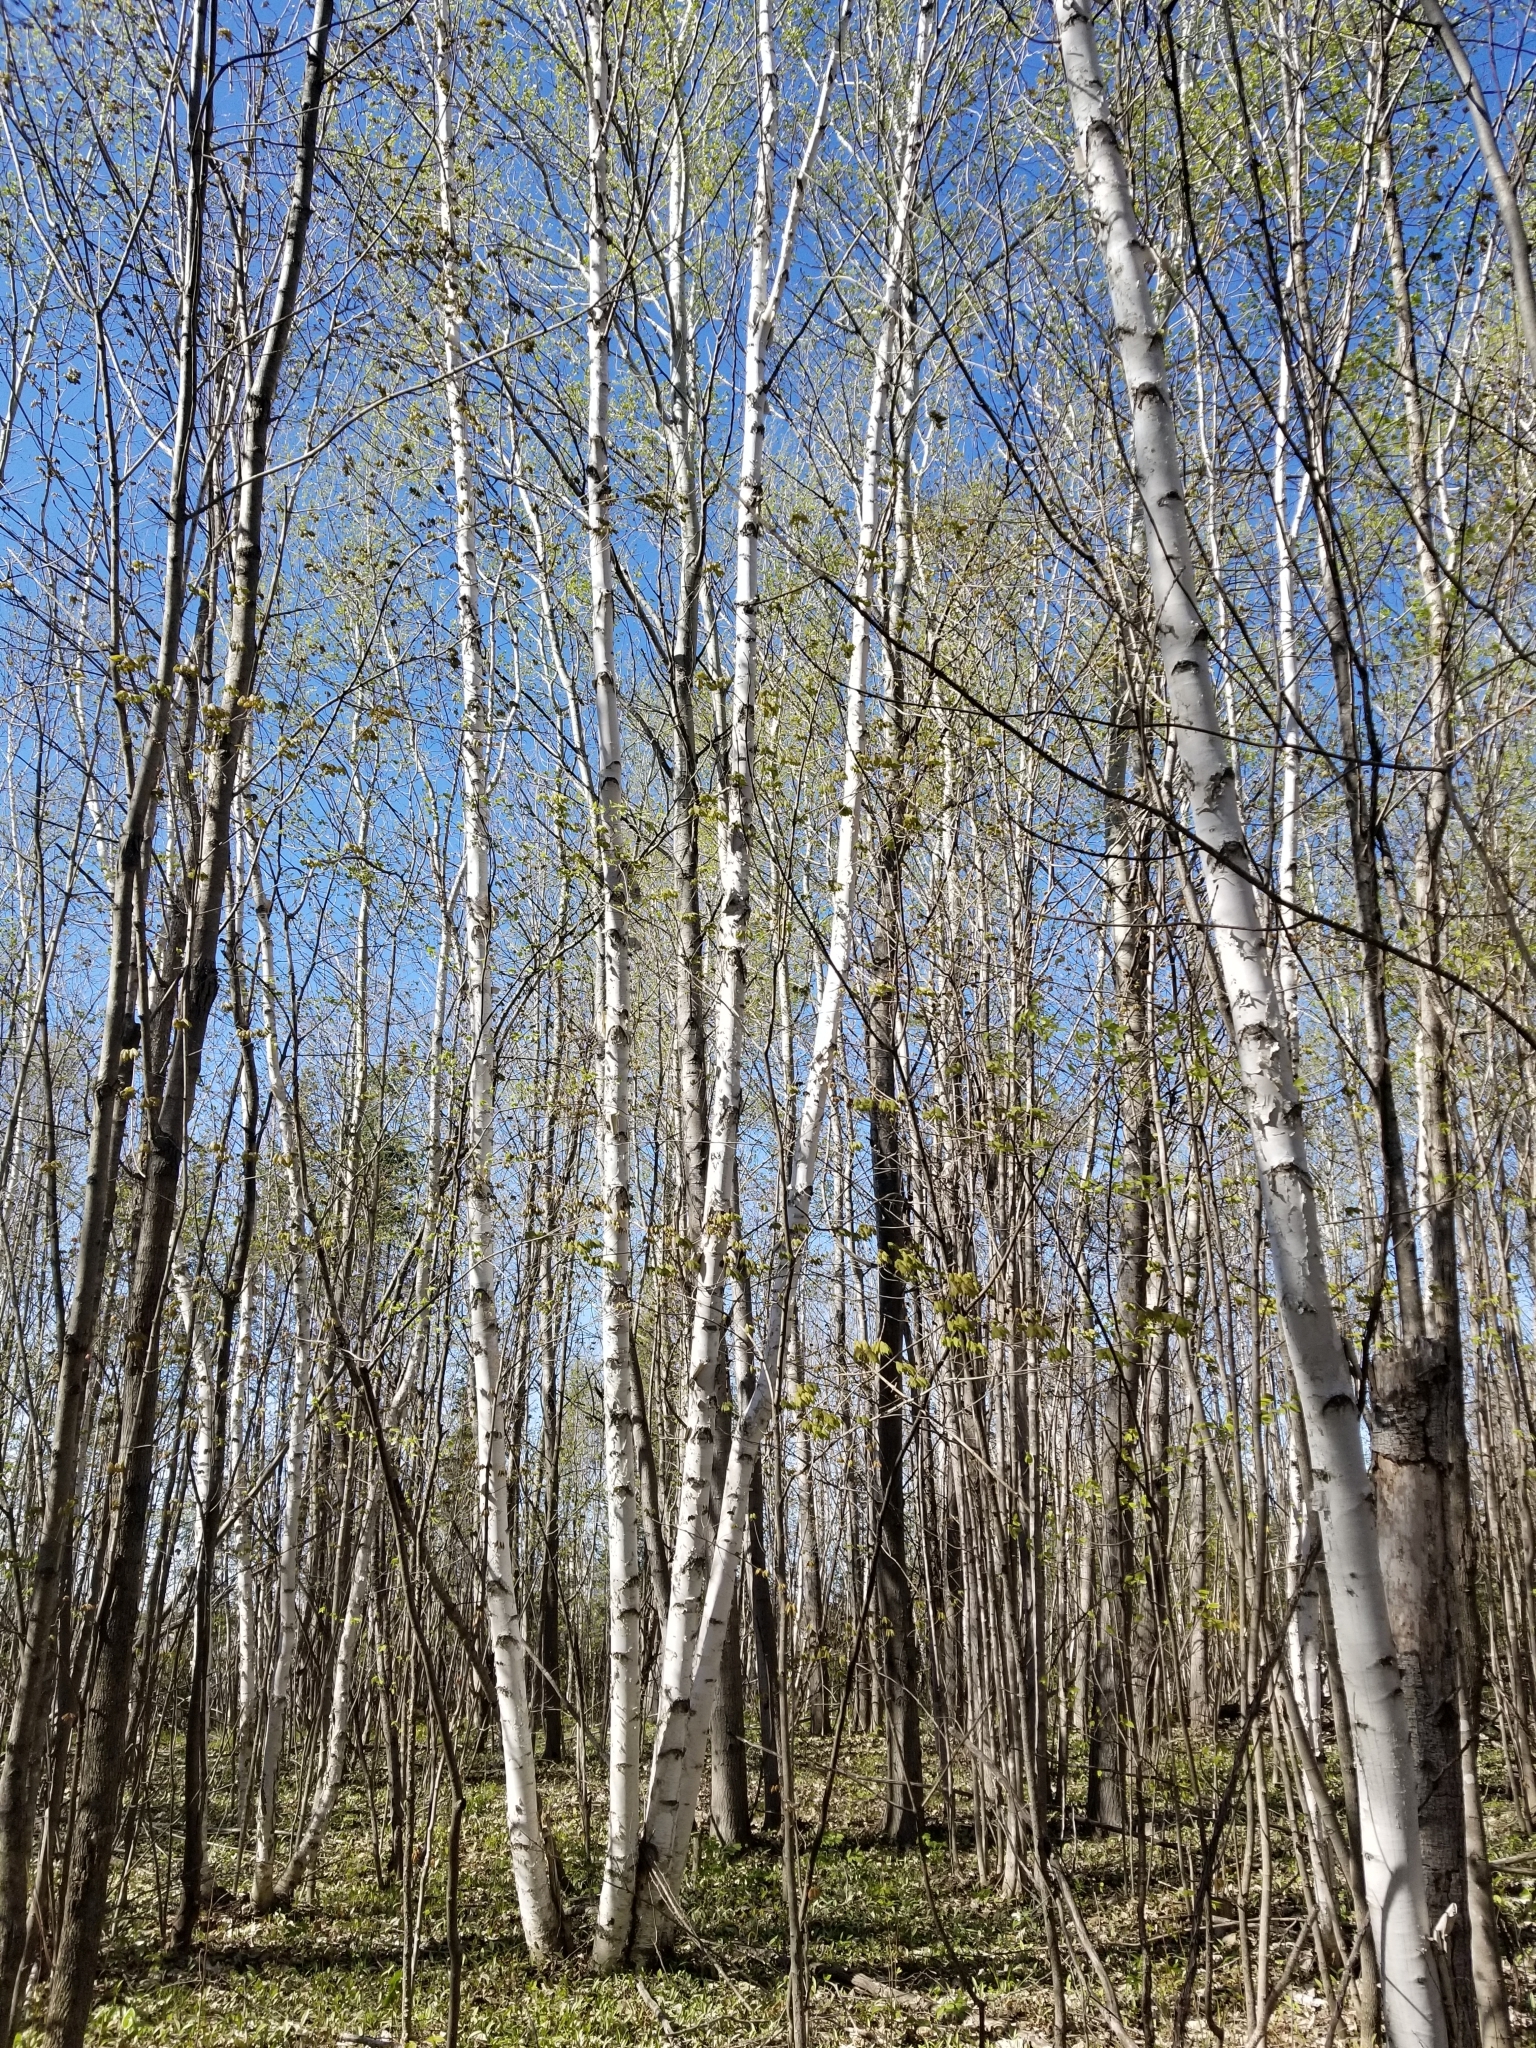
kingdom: Plantae
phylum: Tracheophyta
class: Magnoliopsida
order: Fagales
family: Betulaceae
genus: Betula
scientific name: Betula papyrifera
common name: Paper birch
